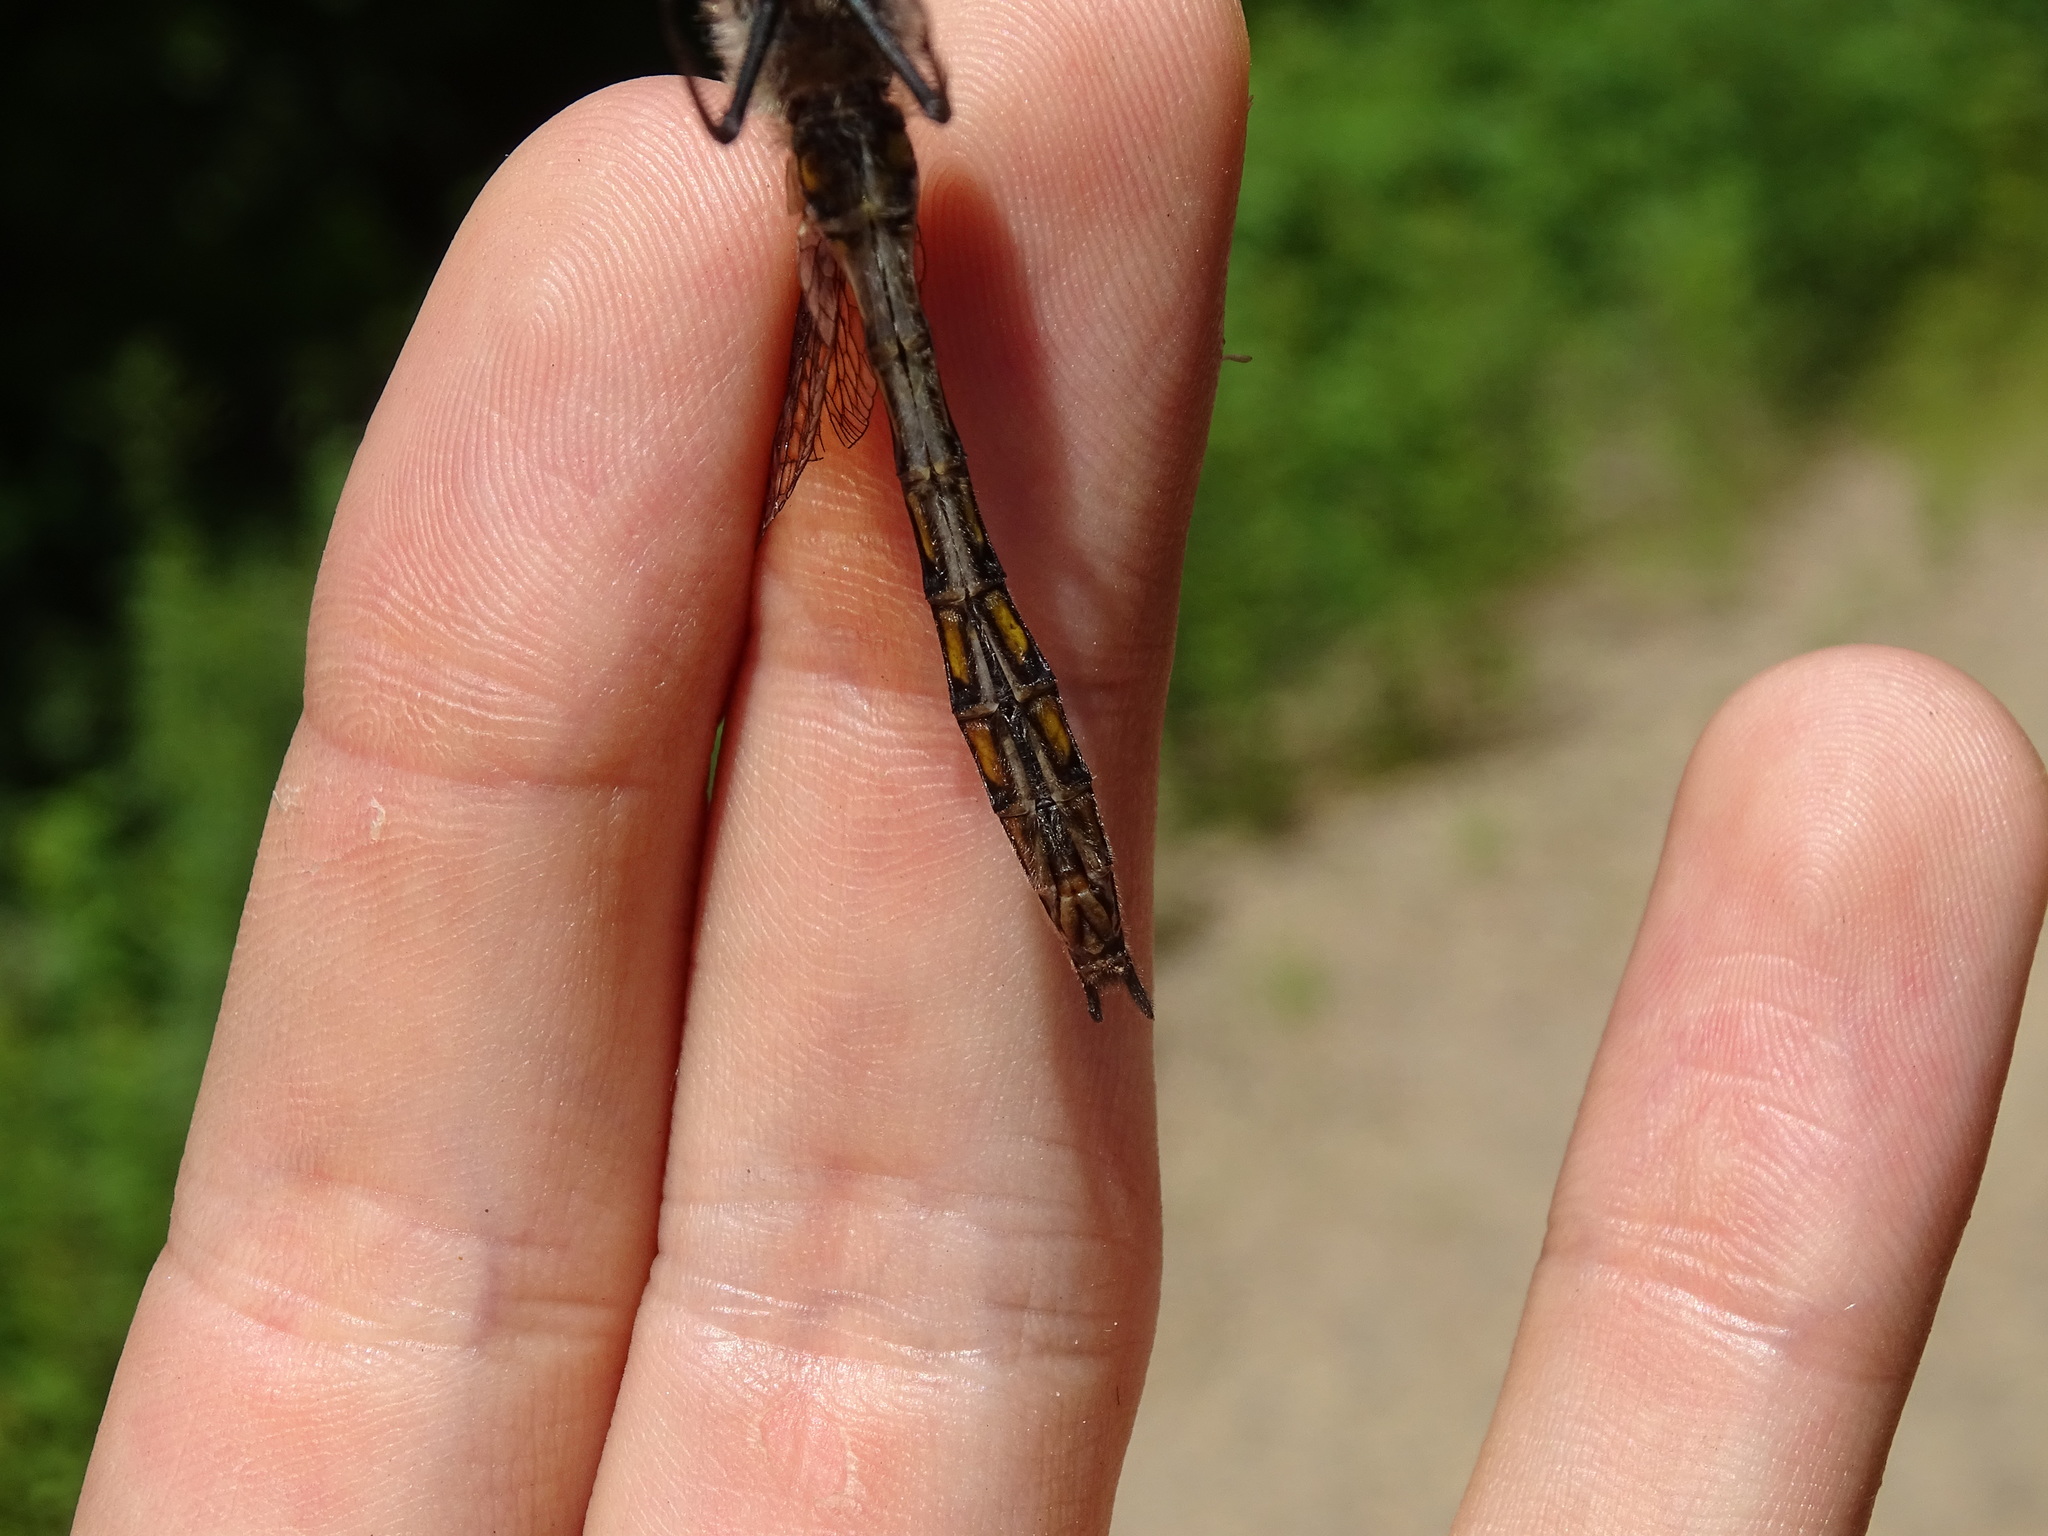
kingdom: Animalia
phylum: Arthropoda
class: Insecta
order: Odonata
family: Corduliidae
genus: Epitheca
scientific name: Epitheca canis
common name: Beaverpond baskettail
